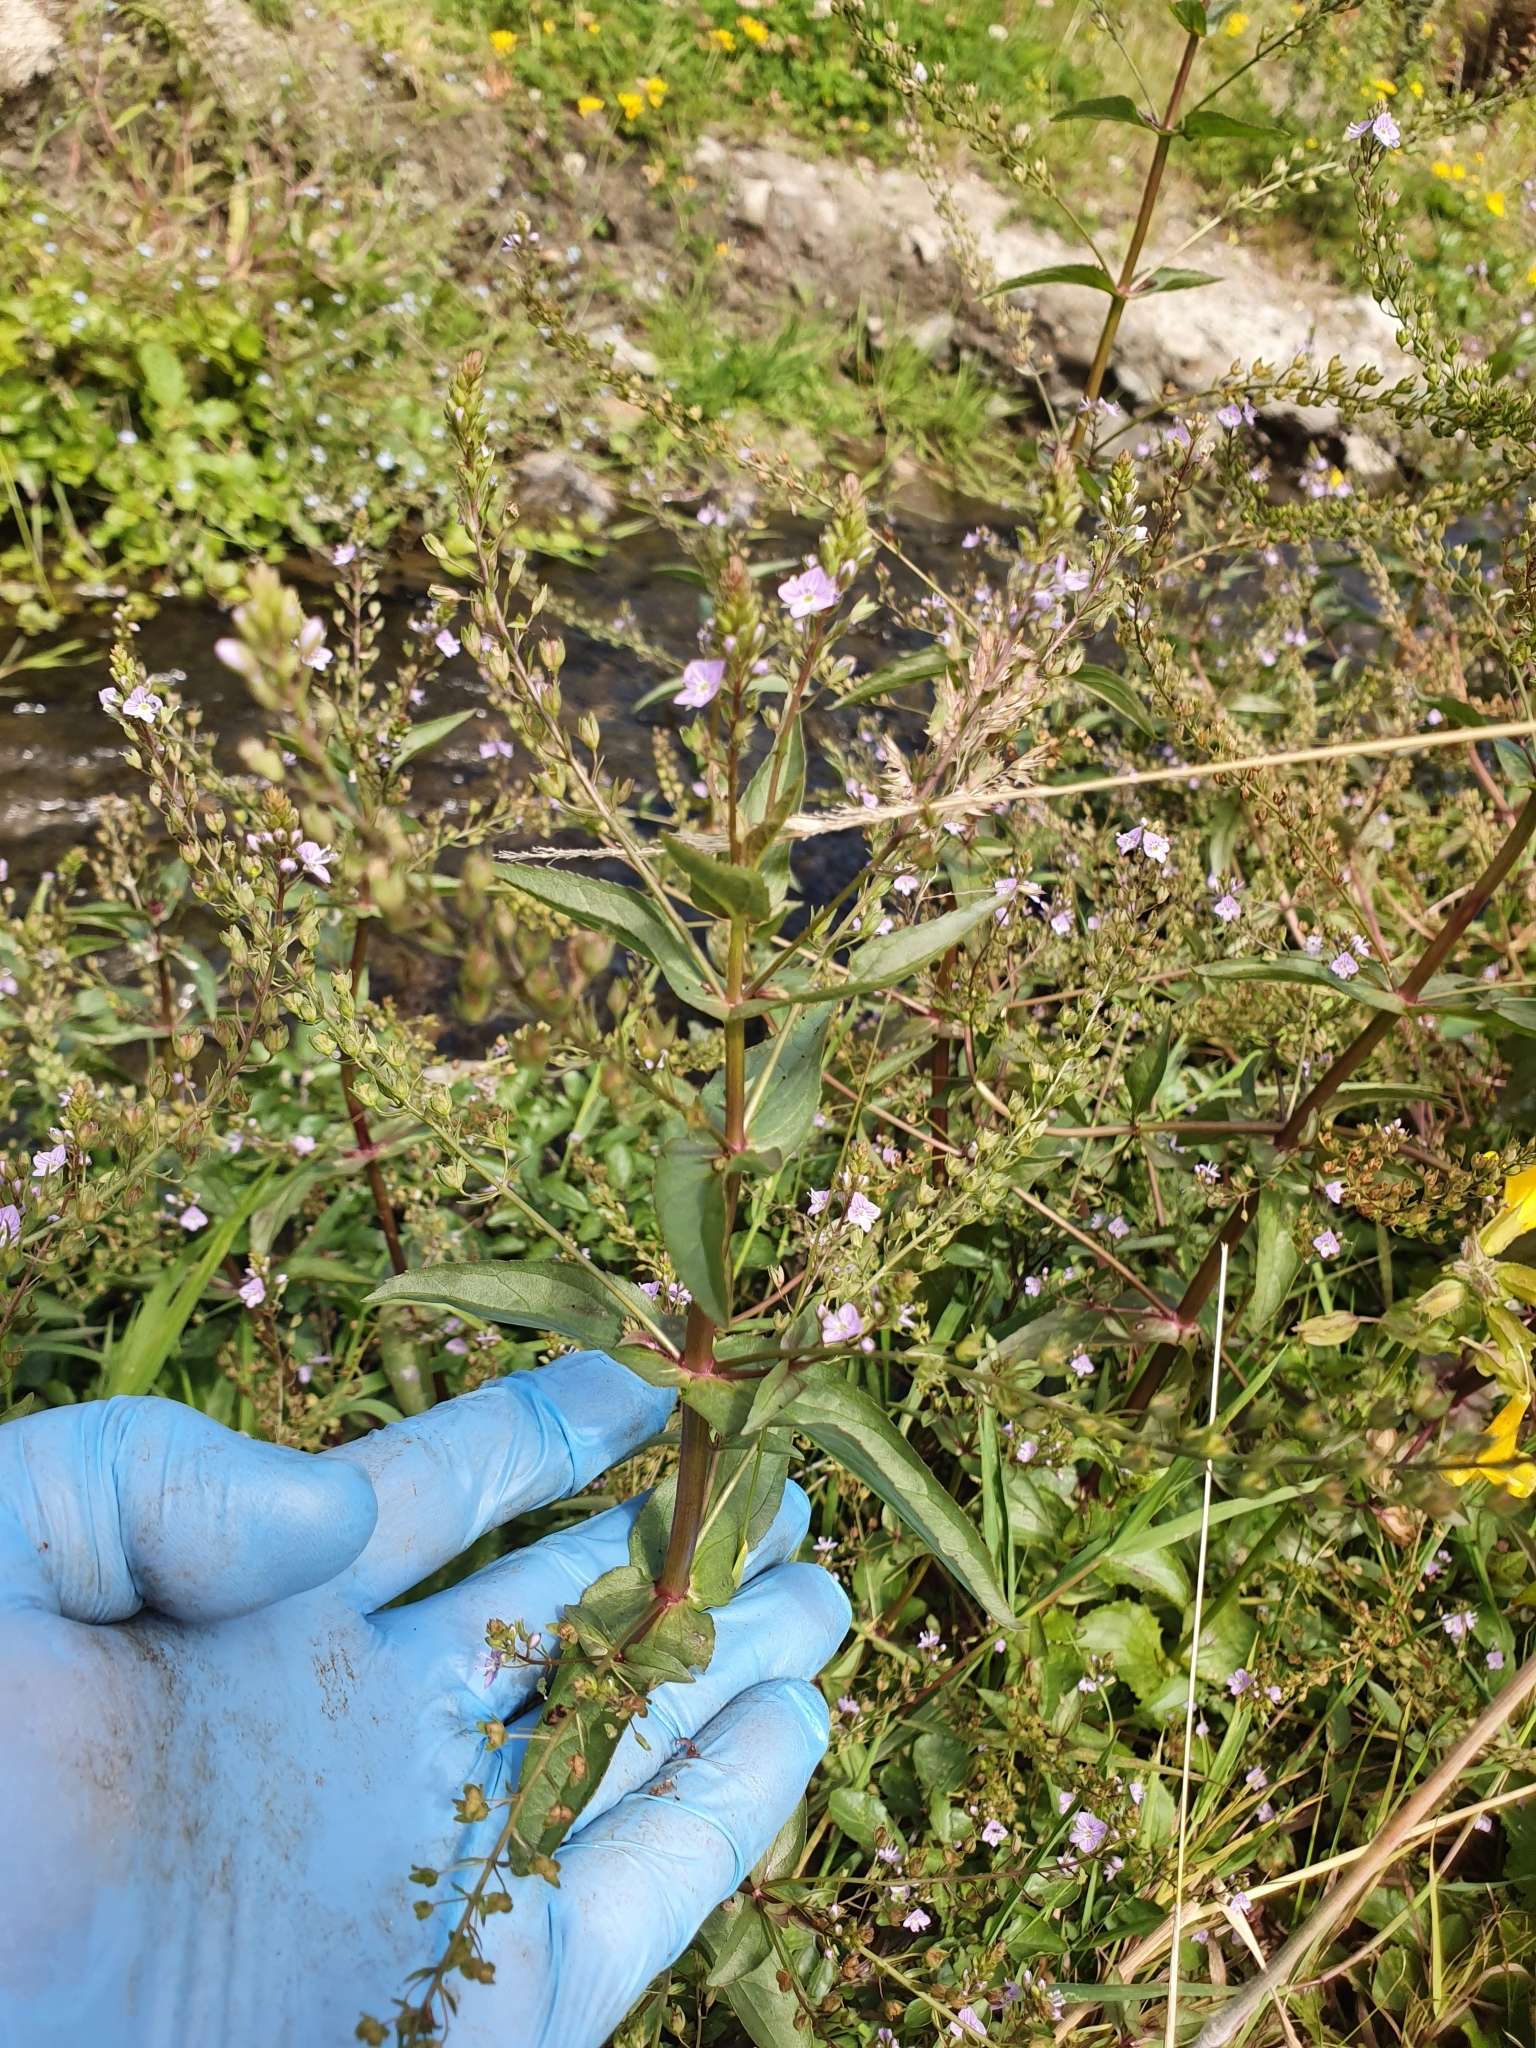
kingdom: Plantae
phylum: Tracheophyta
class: Magnoliopsida
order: Lamiales
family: Plantaginaceae
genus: Veronica
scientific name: Veronica anagallis-aquatica
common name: Water speedwell
